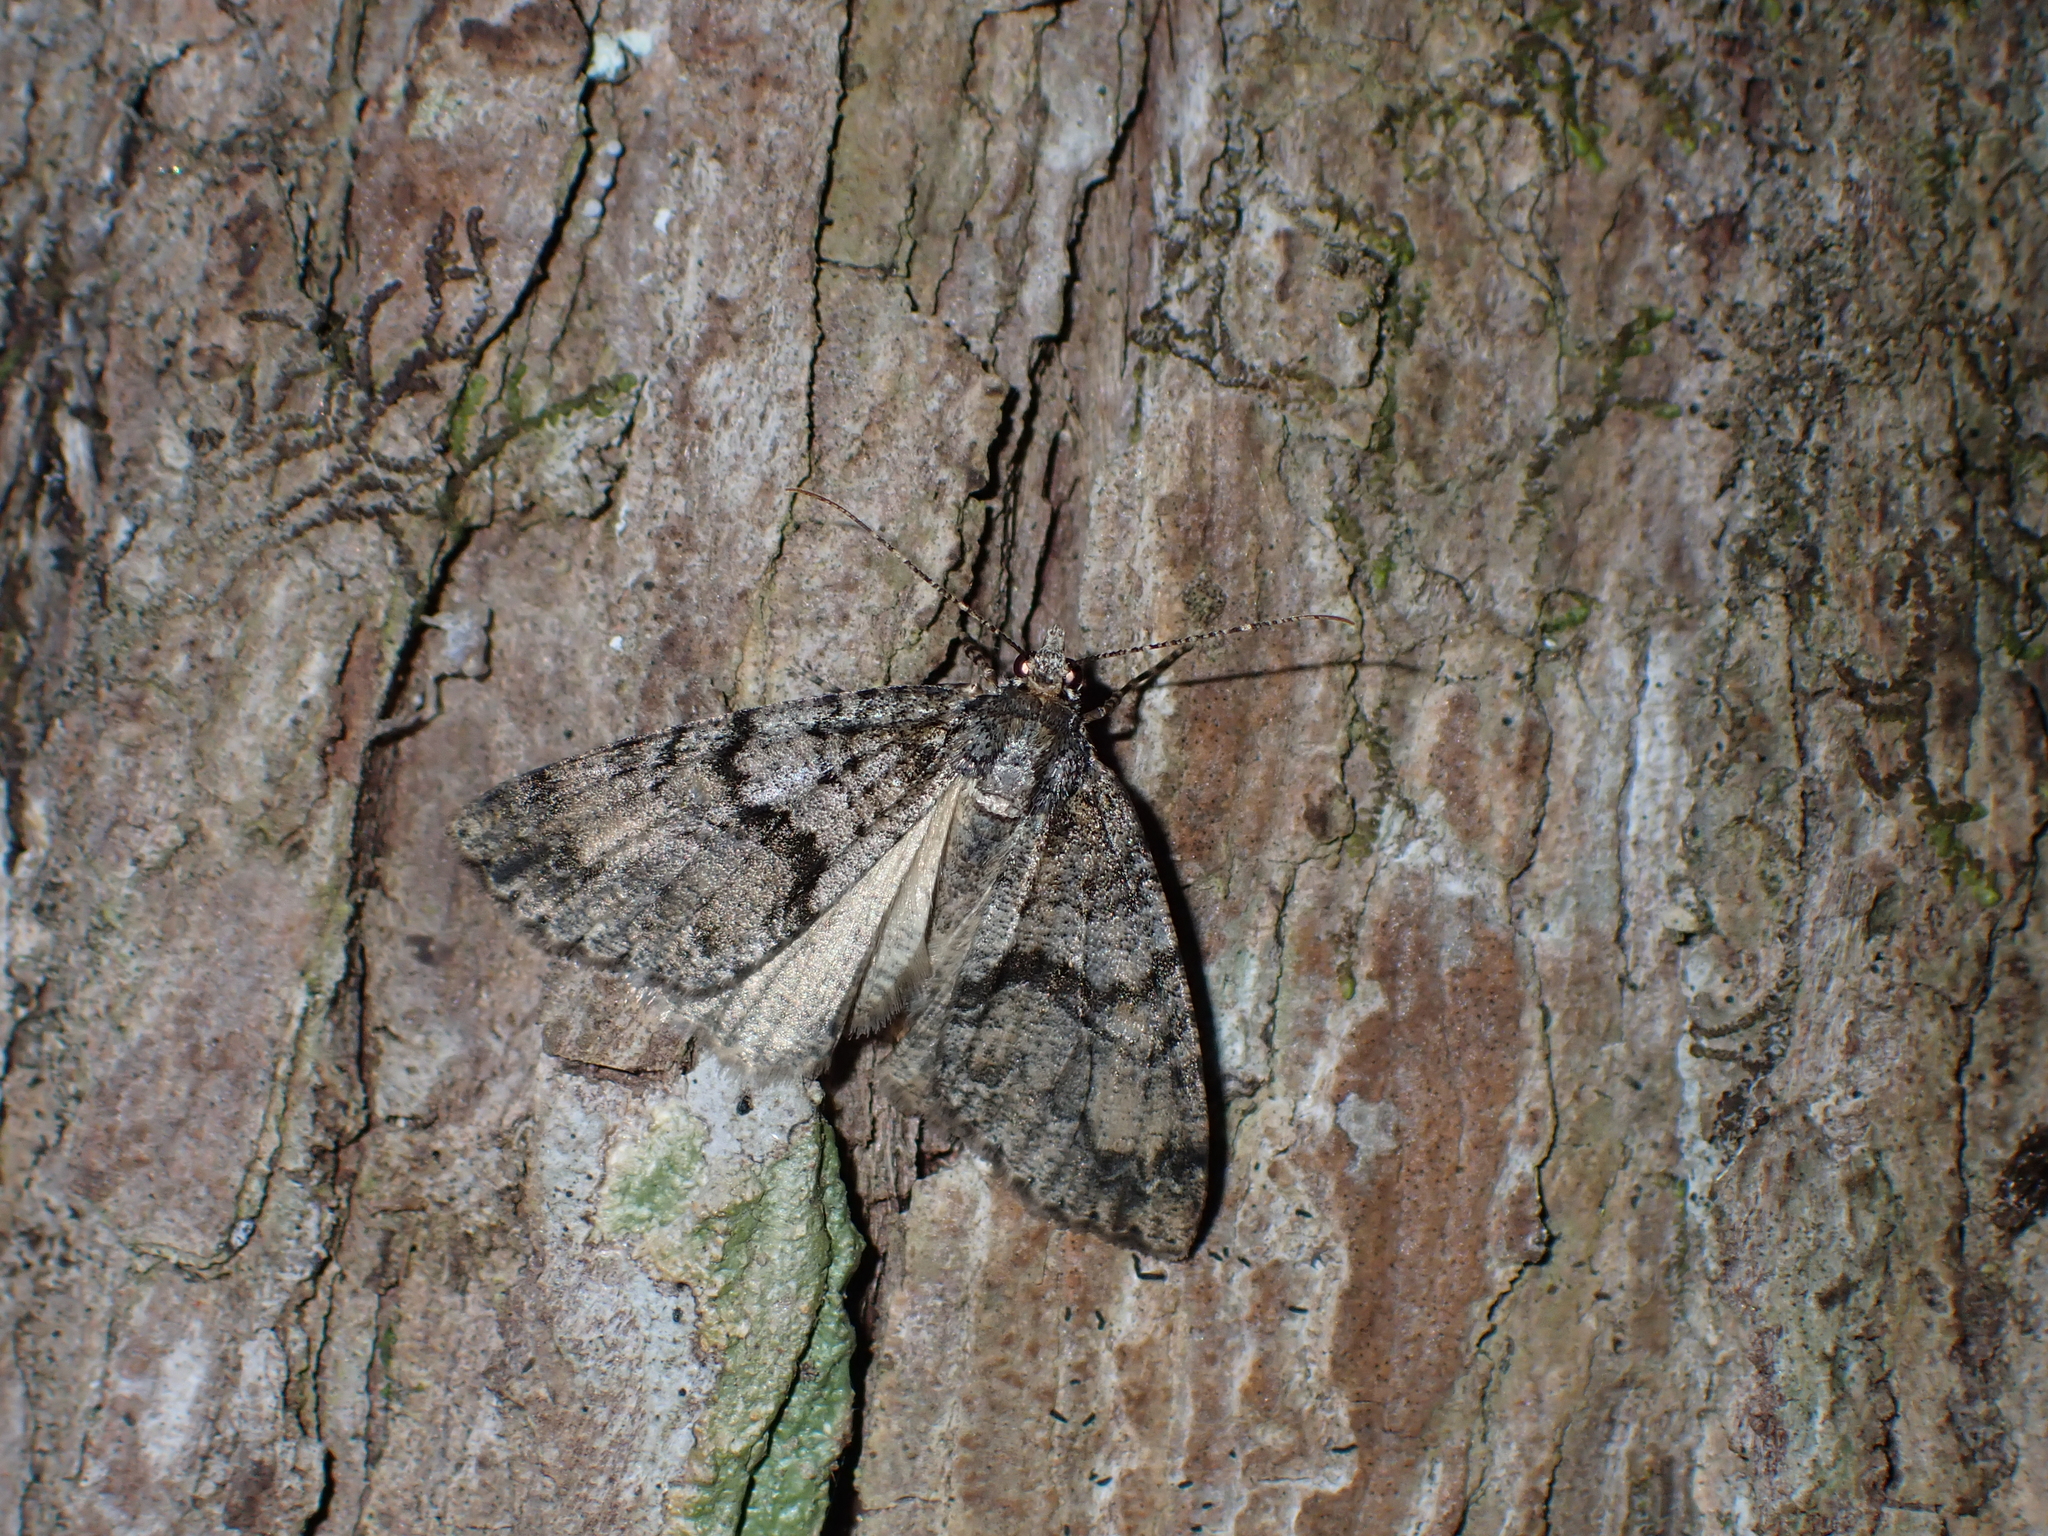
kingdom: Animalia
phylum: Arthropoda
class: Insecta
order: Lepidoptera
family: Geometridae
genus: Pseudocoremia
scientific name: Pseudocoremia suavis
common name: Common forest looper
